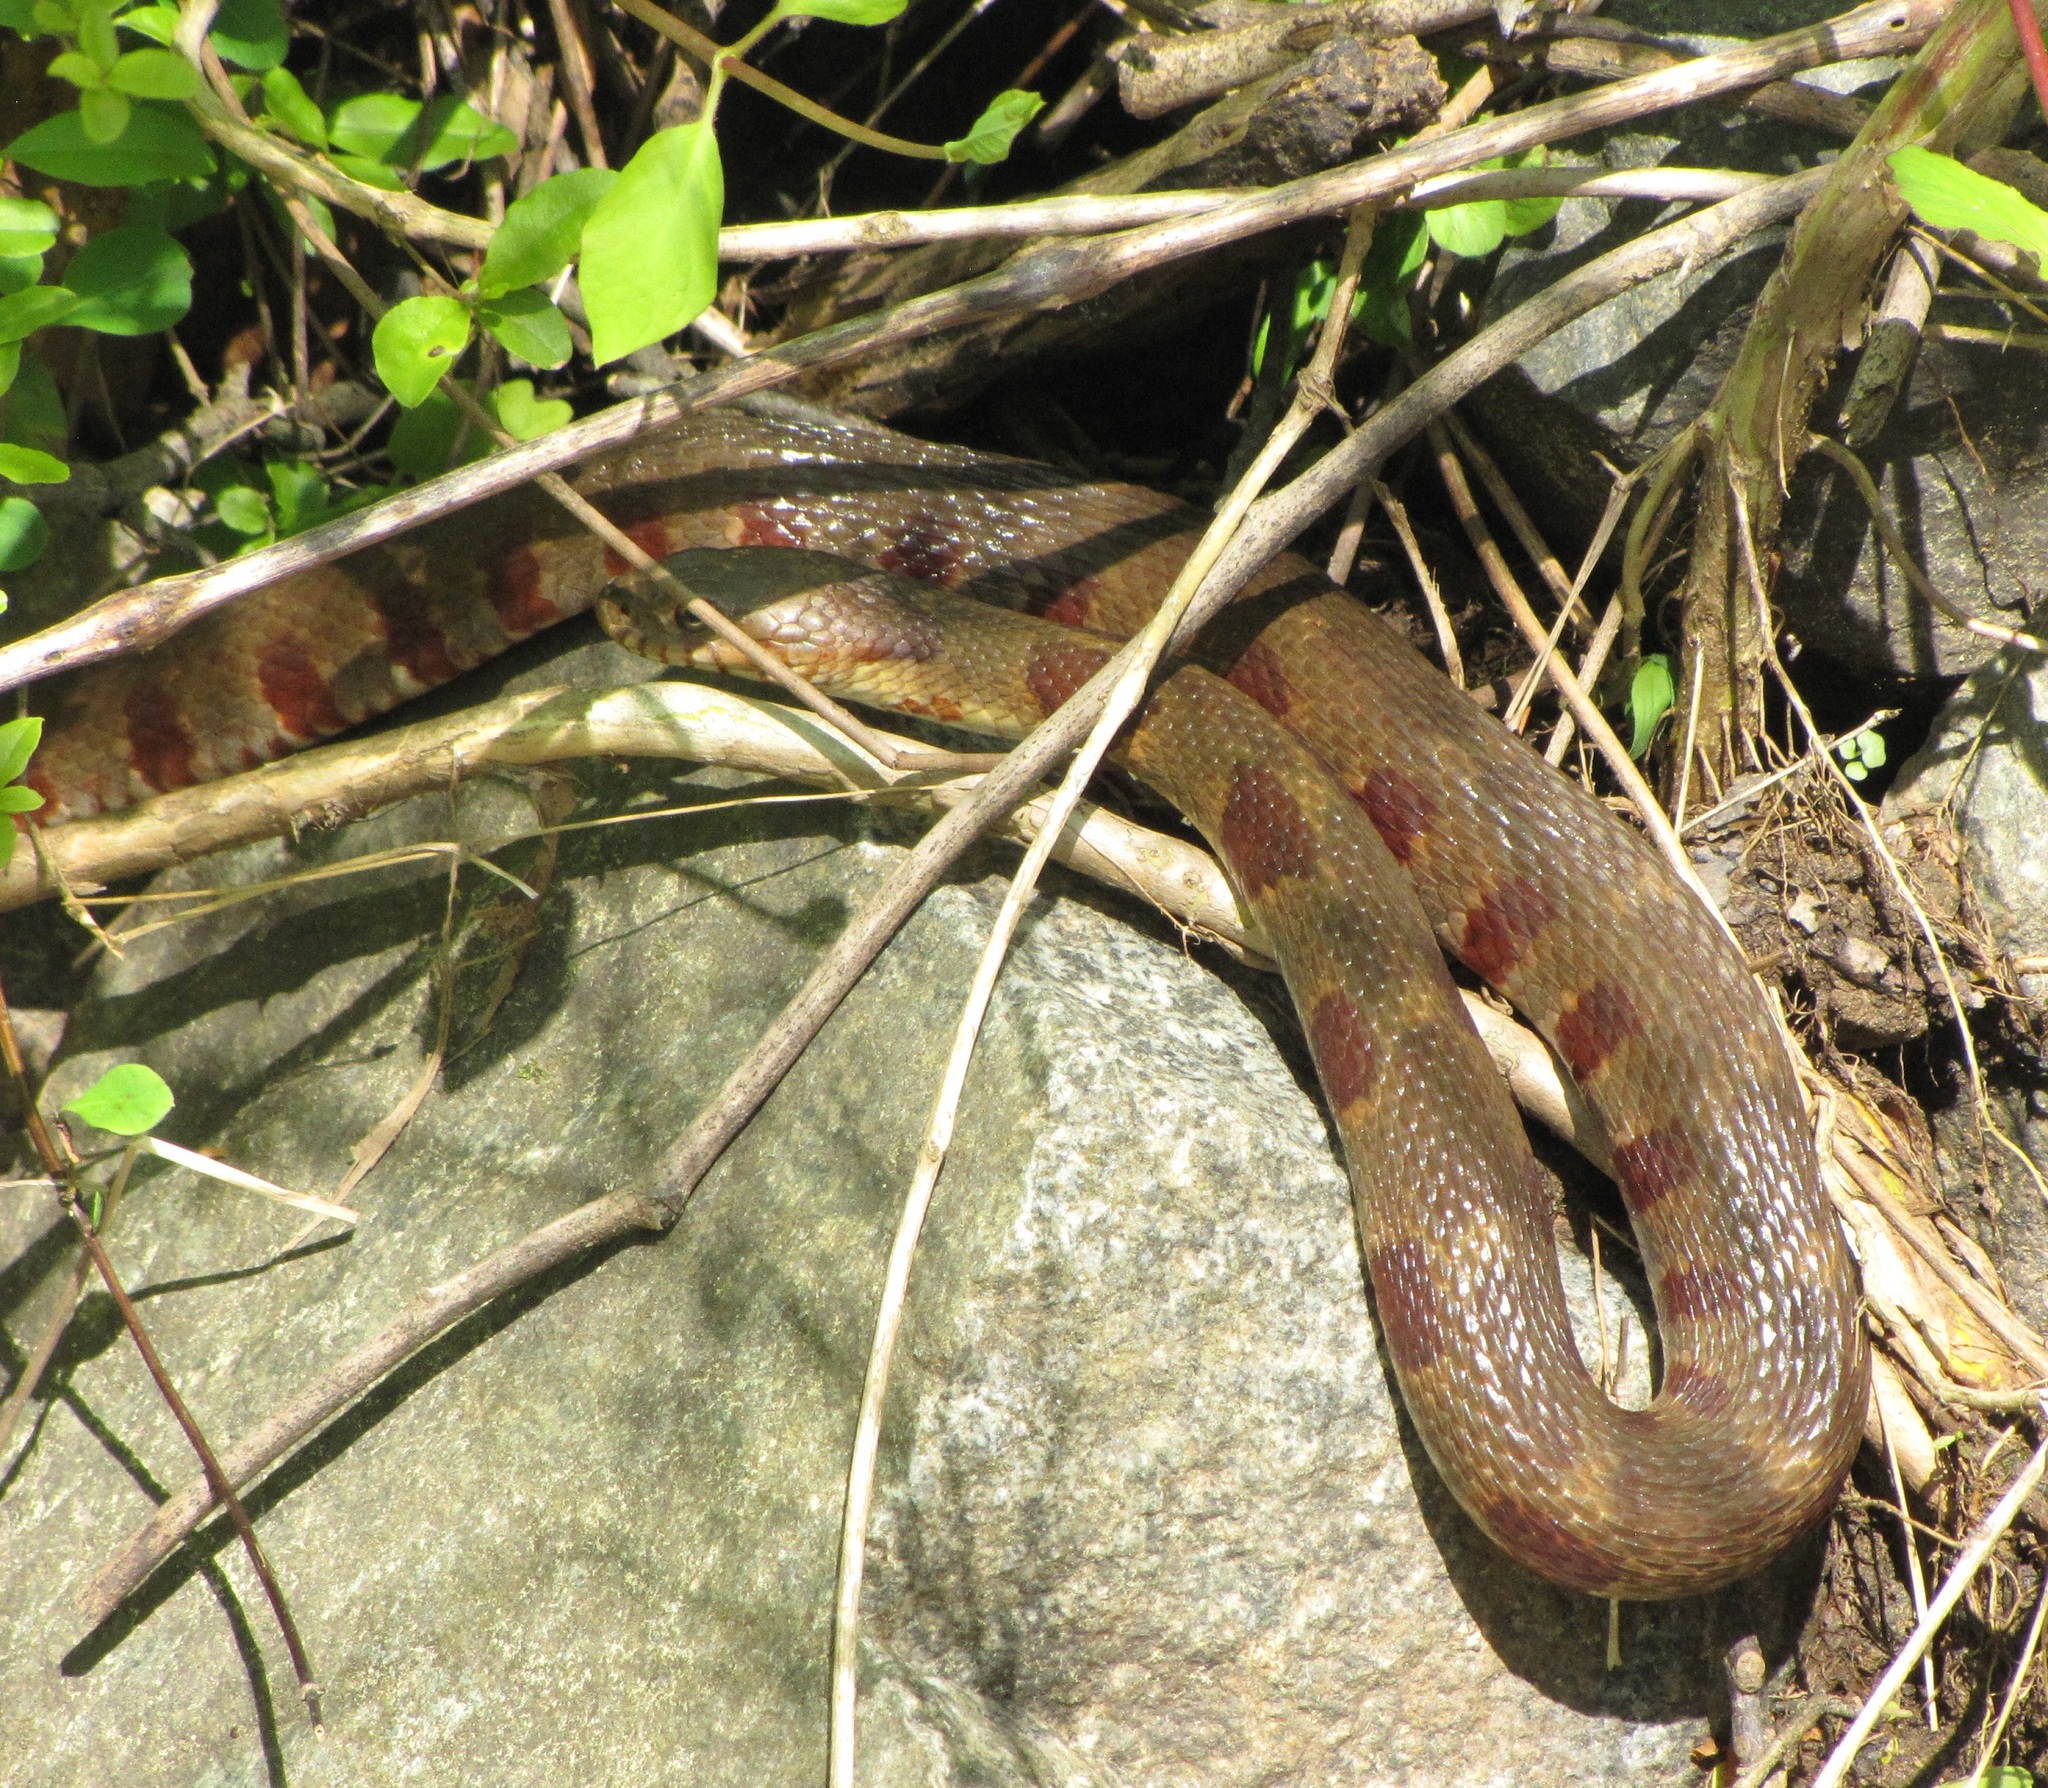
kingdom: Animalia
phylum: Chordata
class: Squamata
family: Colubridae
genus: Nerodia
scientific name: Nerodia sipedon
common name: Northern water snake
